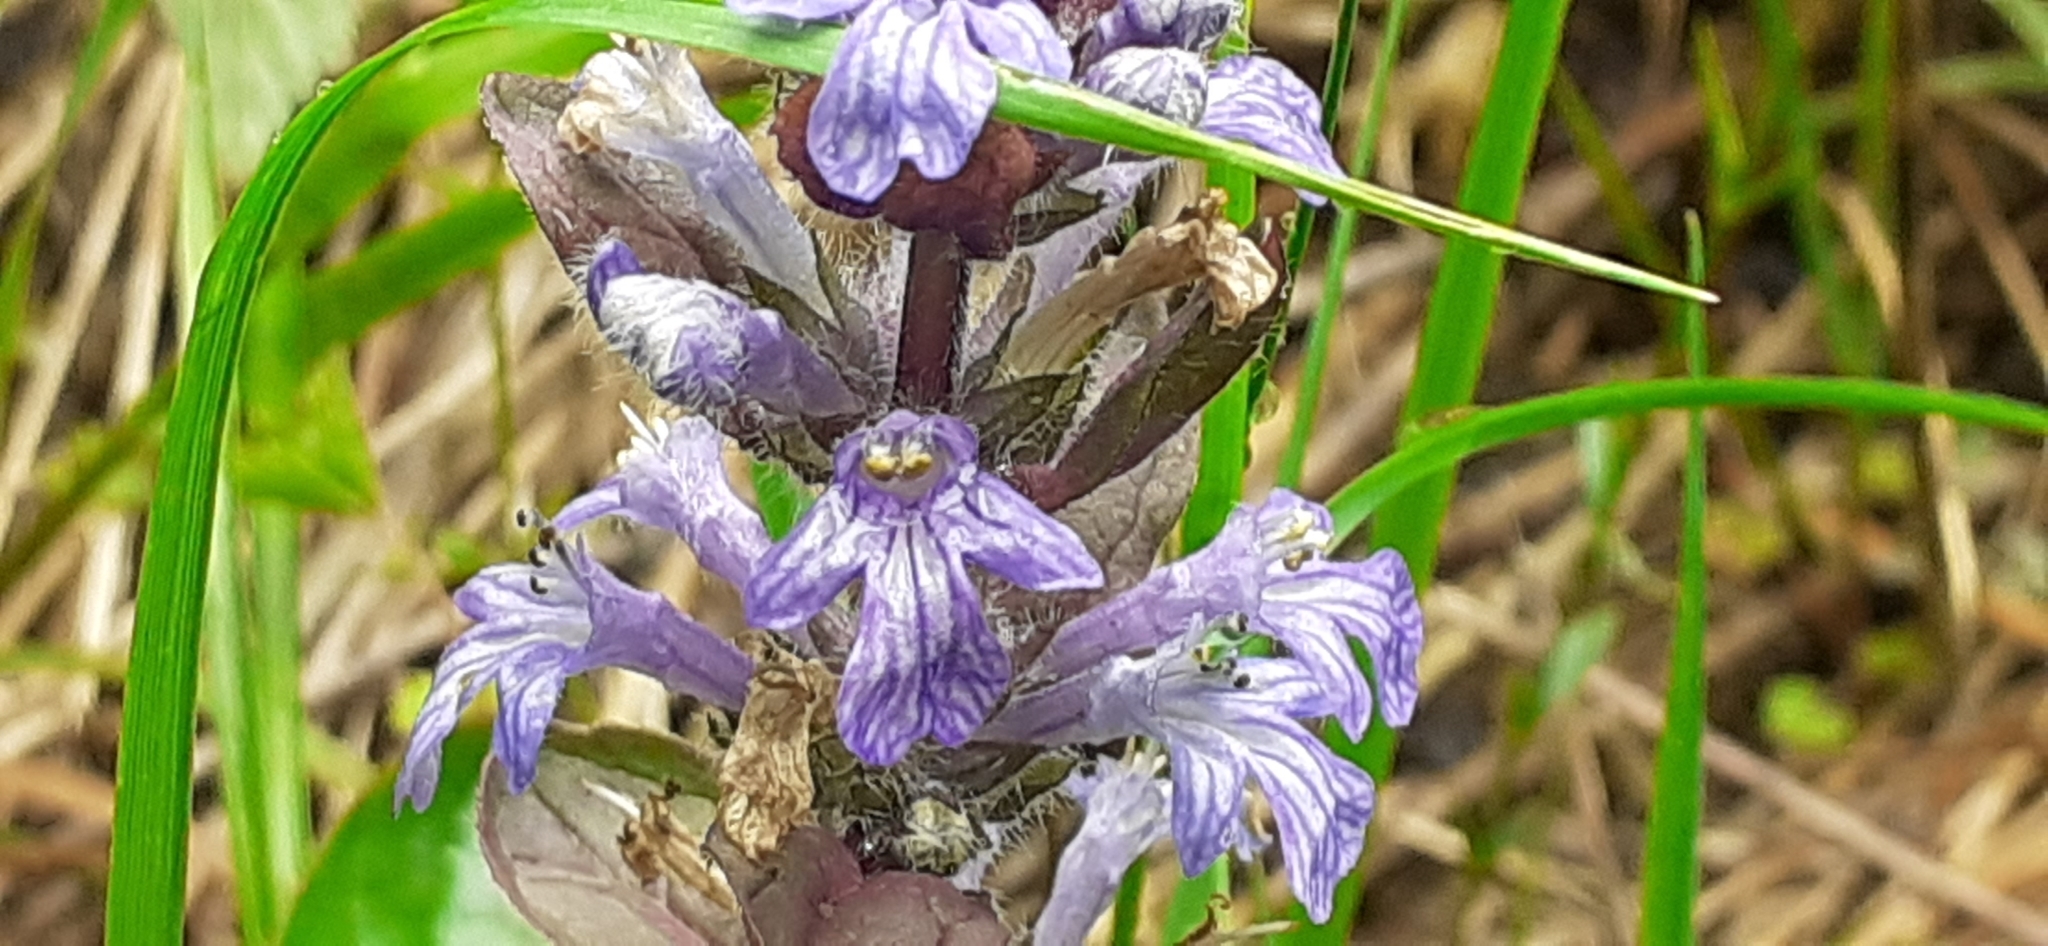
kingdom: Plantae
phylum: Tracheophyta
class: Magnoliopsida
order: Lamiales
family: Lamiaceae
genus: Ajuga
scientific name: Ajuga reptans
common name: Bugle
